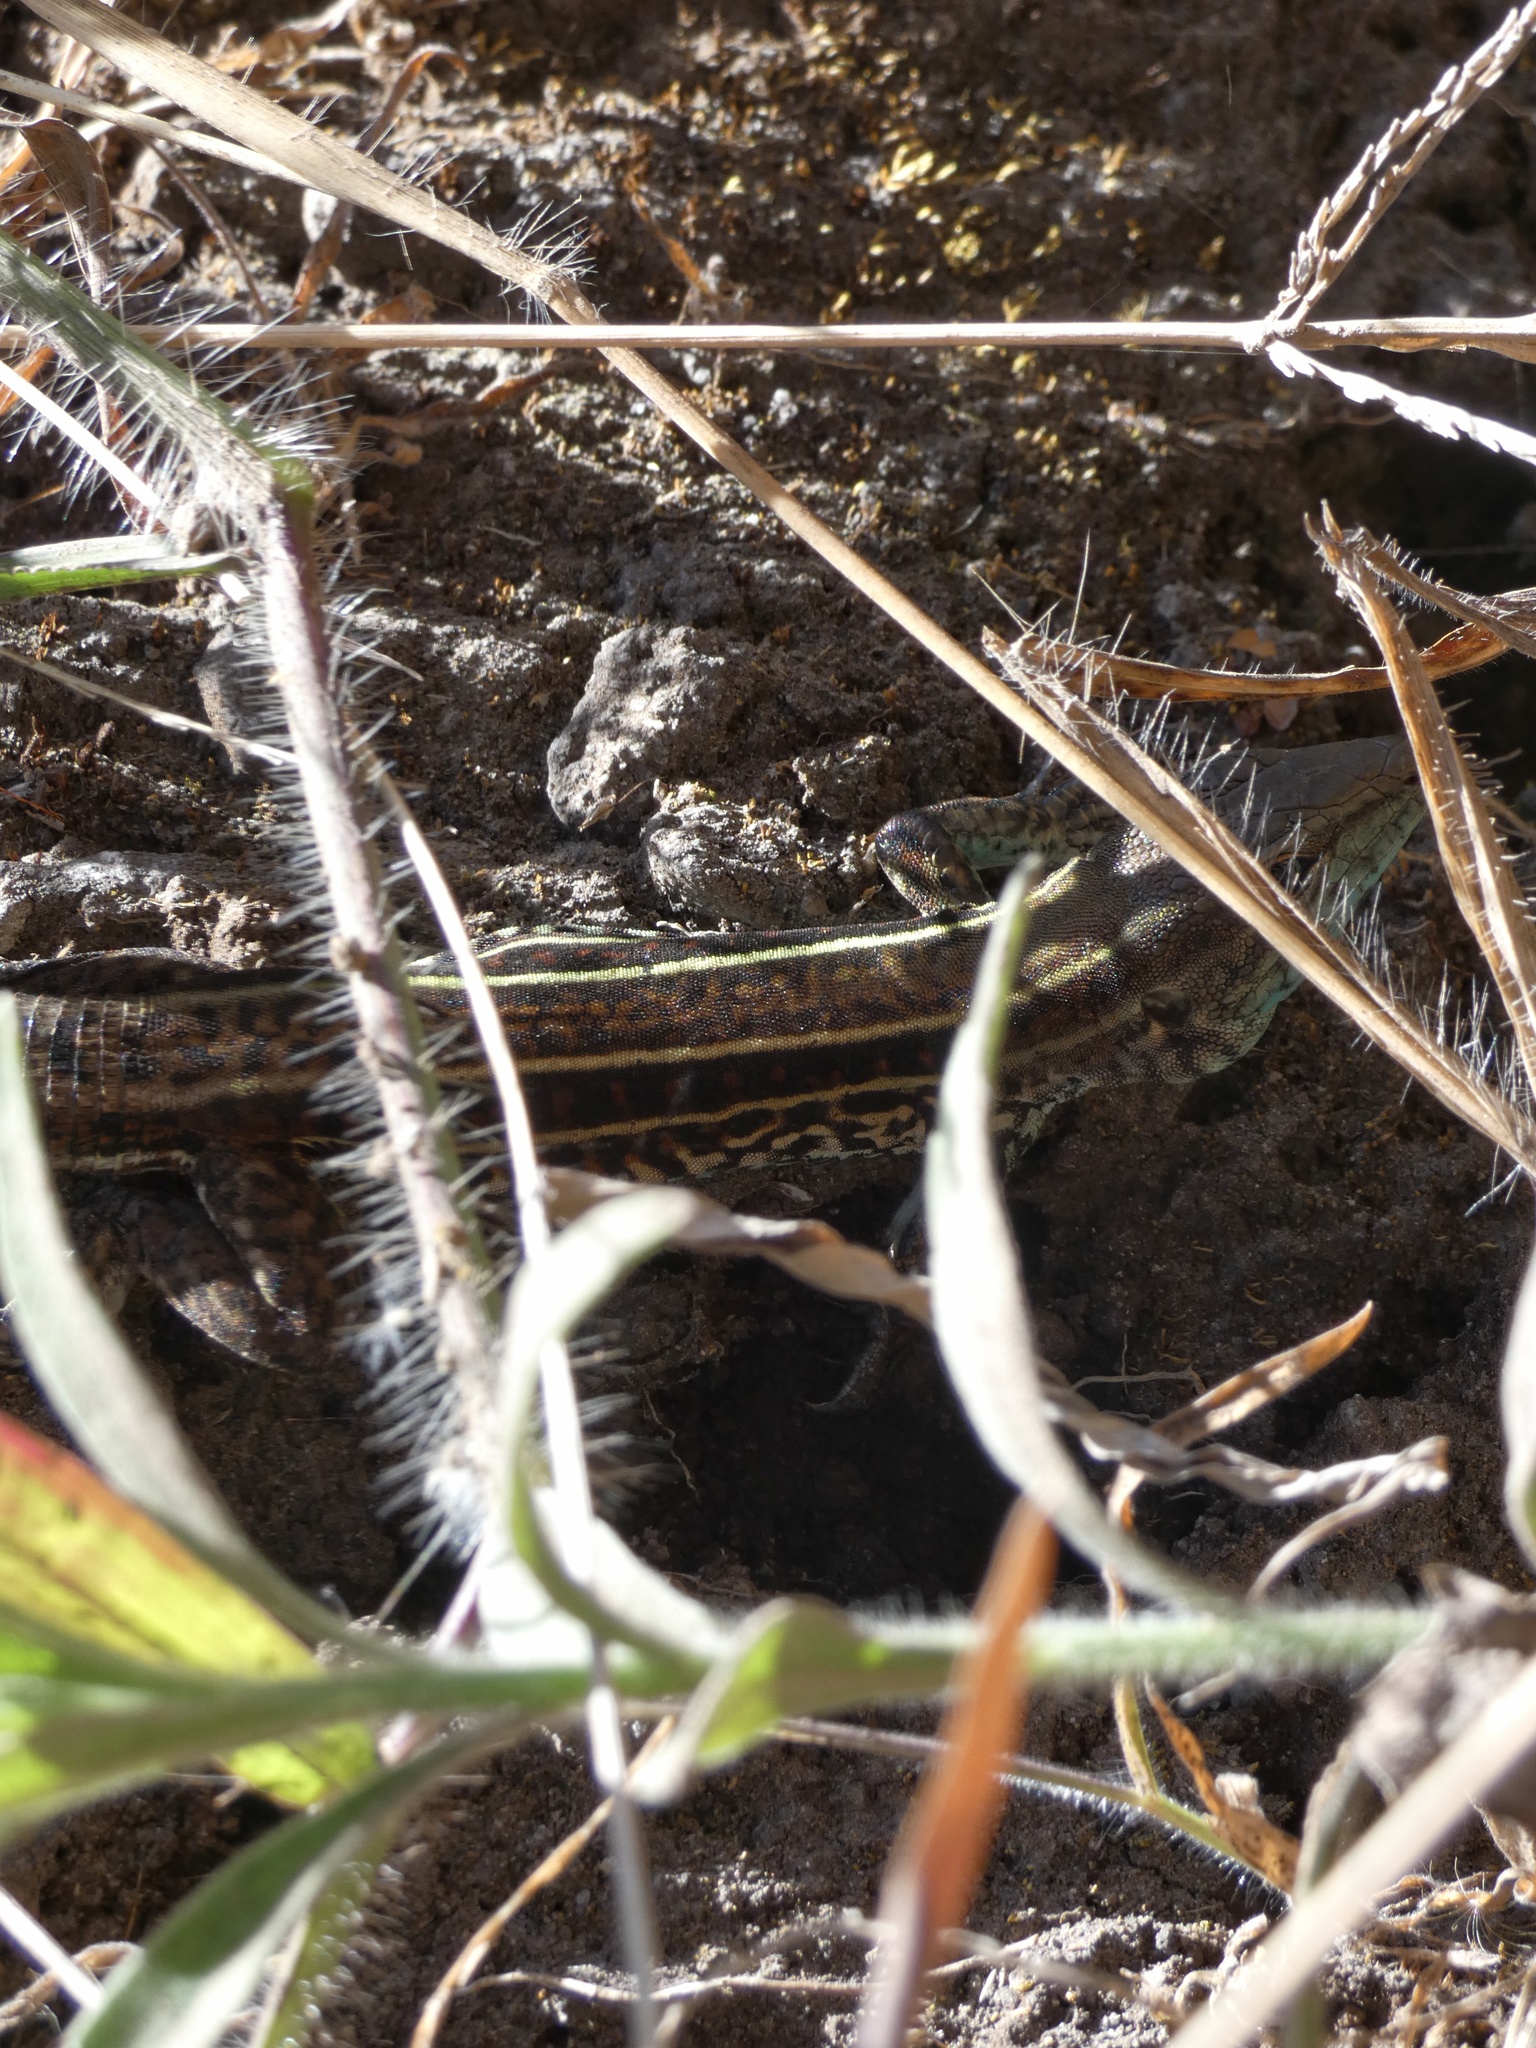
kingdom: Animalia
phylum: Chordata
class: Squamata
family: Teiidae
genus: Holcosus
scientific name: Holcosus quadrilineatus
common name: Four-lined ameiva
